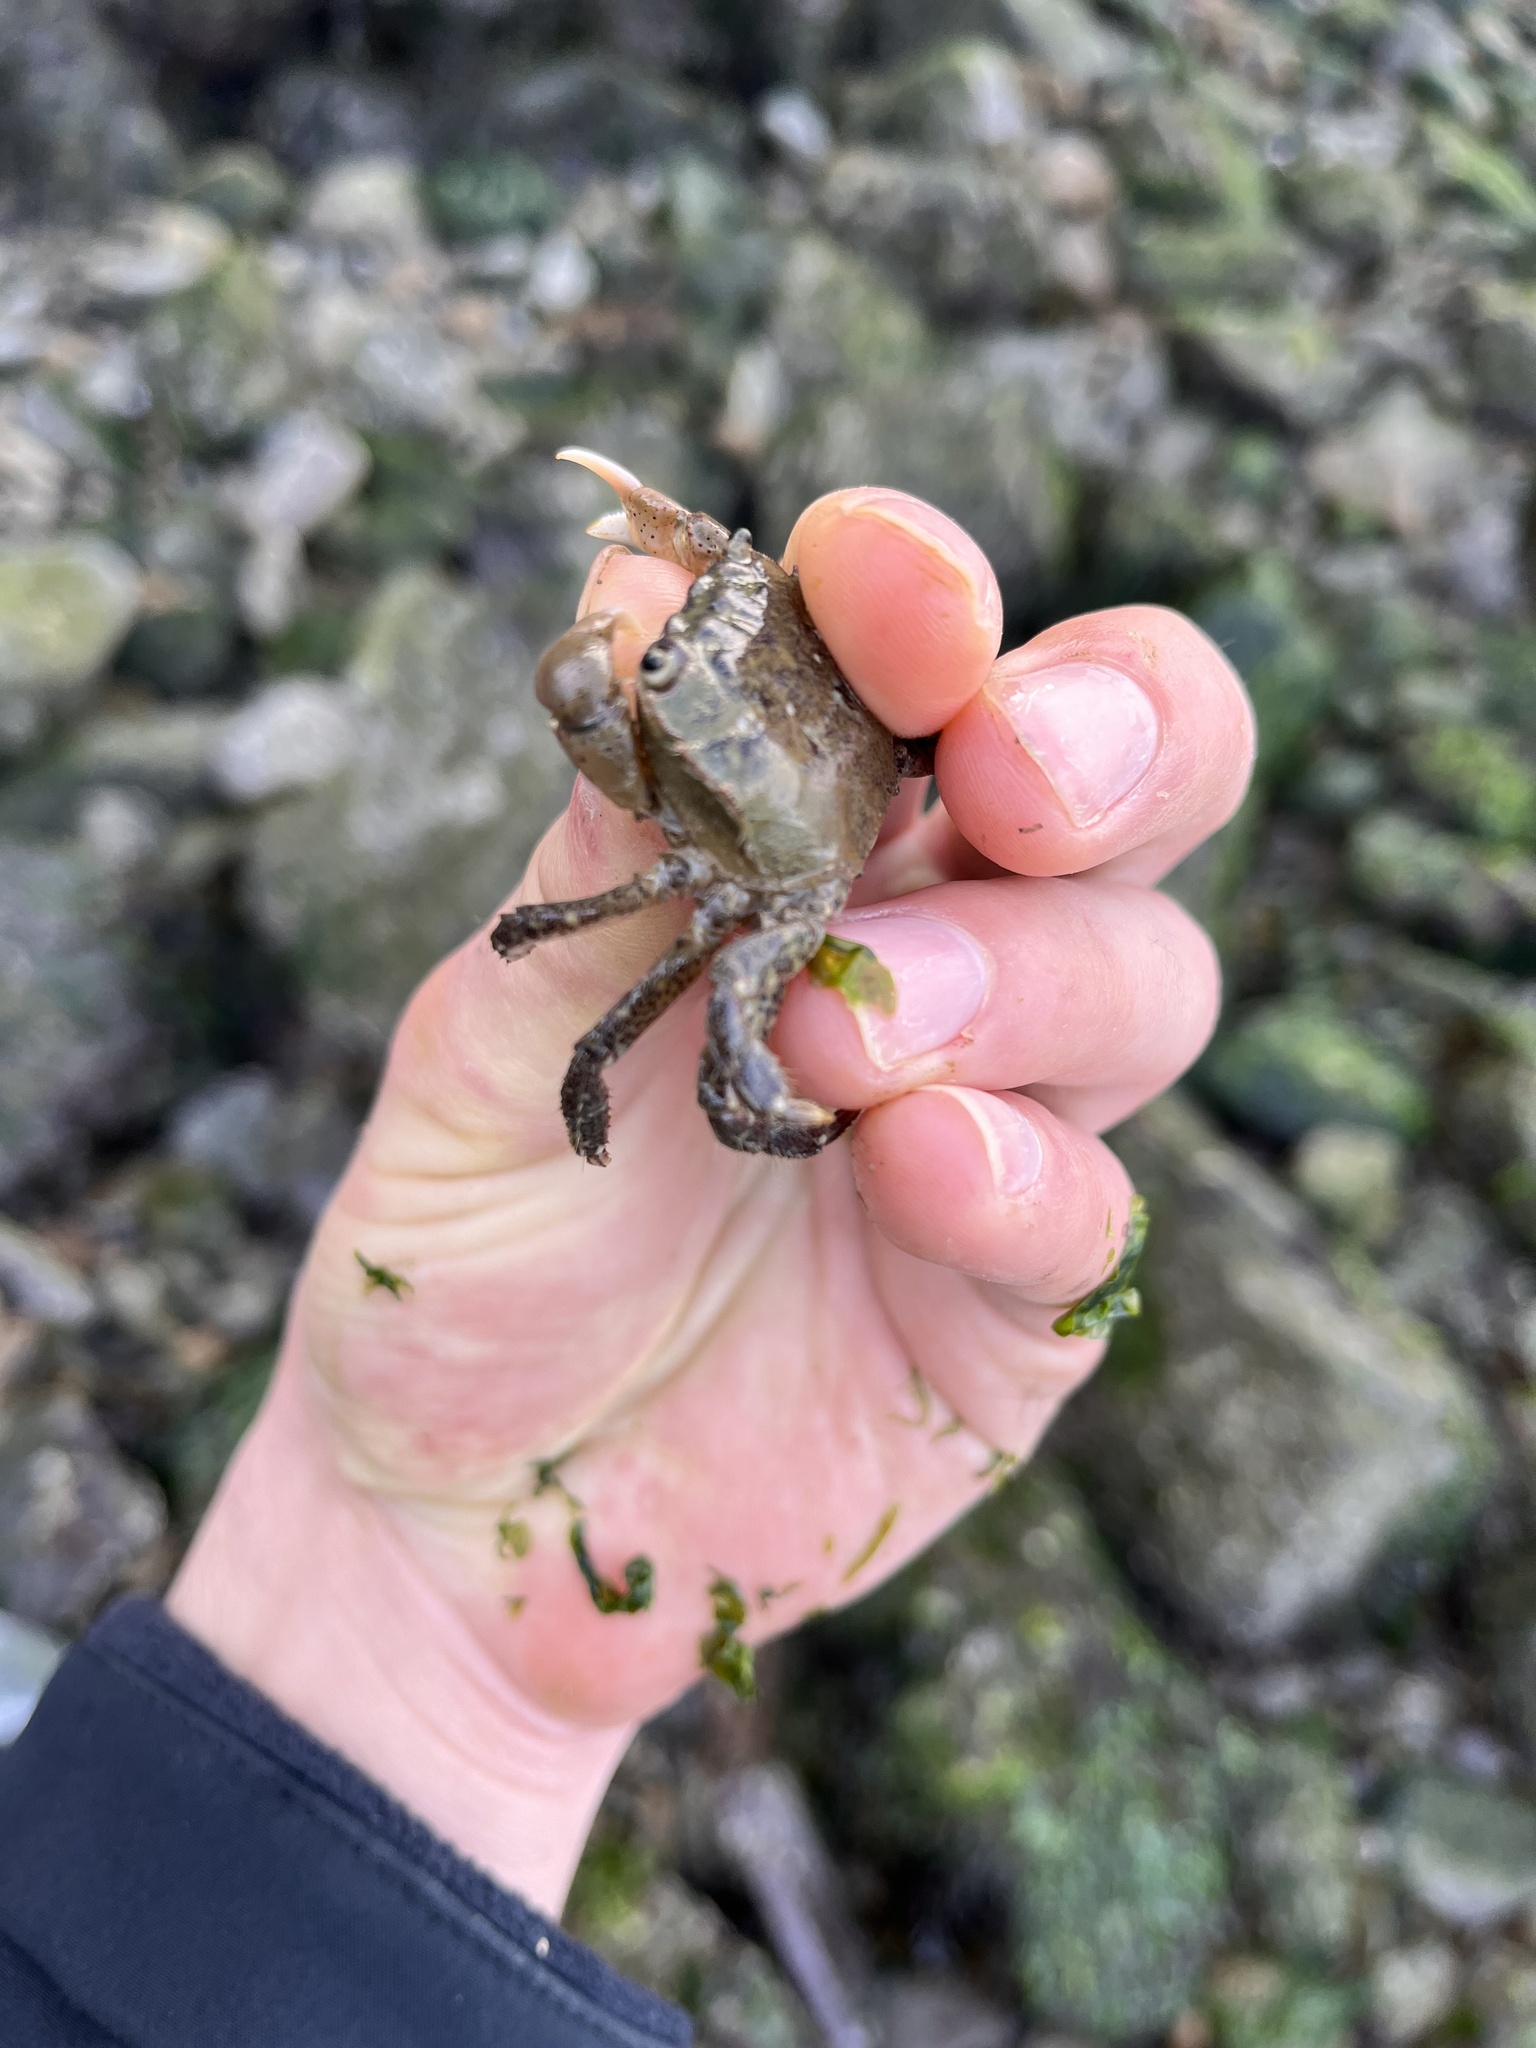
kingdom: Animalia
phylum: Arthropoda
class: Malacostraca
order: Decapoda
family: Varunidae
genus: Hemigrapsus
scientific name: Hemigrapsus oregonensis
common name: Yellow shore crab
